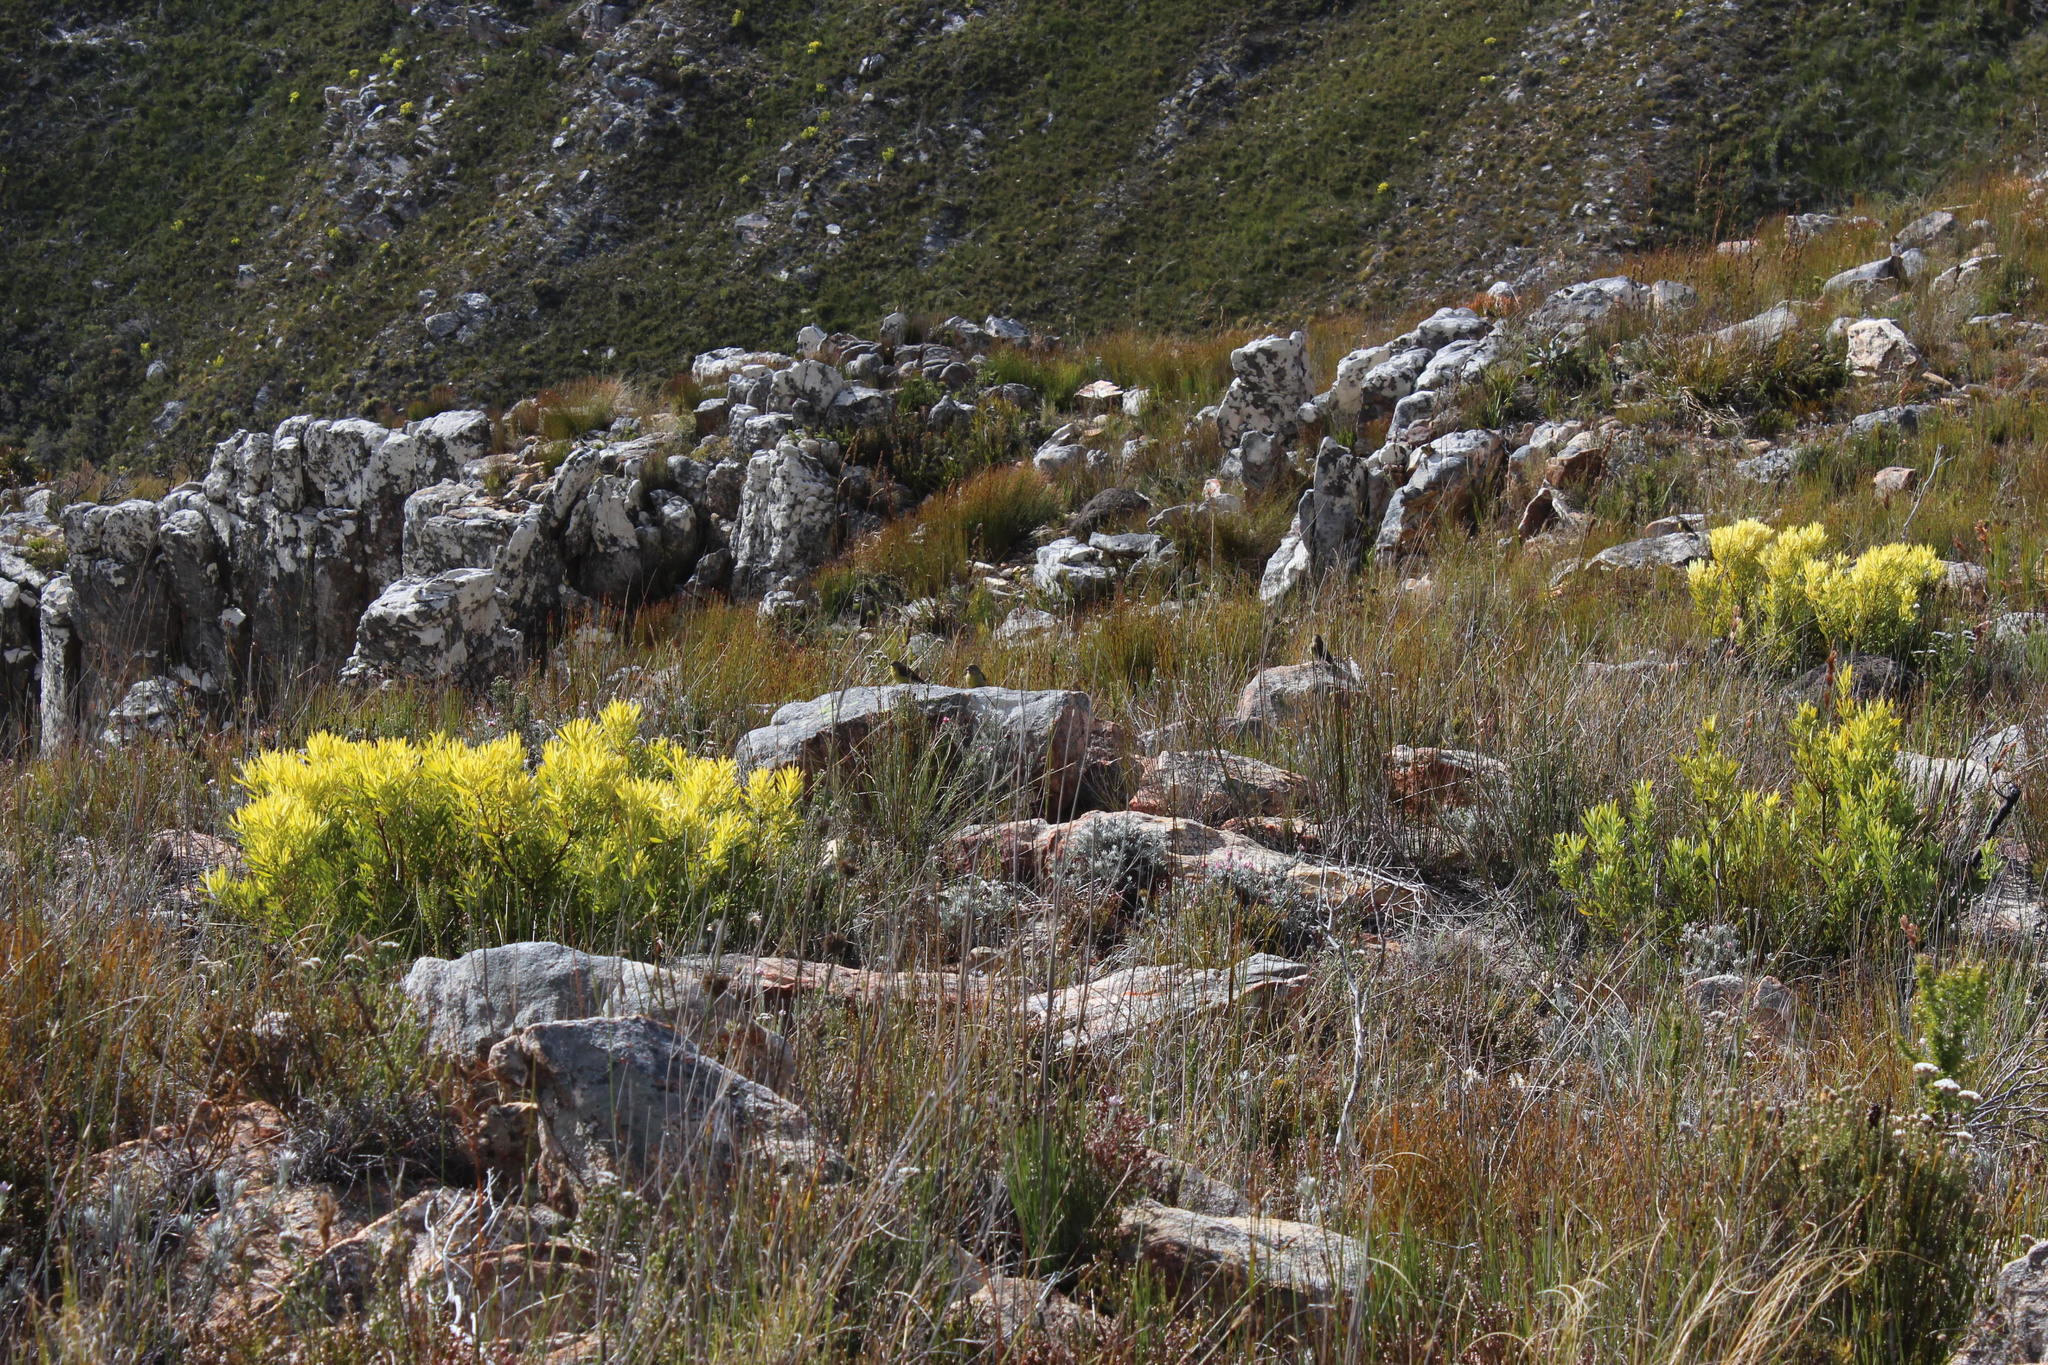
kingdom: Plantae
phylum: Tracheophyta
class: Magnoliopsida
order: Proteales
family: Proteaceae
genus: Leucadendron
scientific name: Leucadendron salignum
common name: Common sunshine conebush
